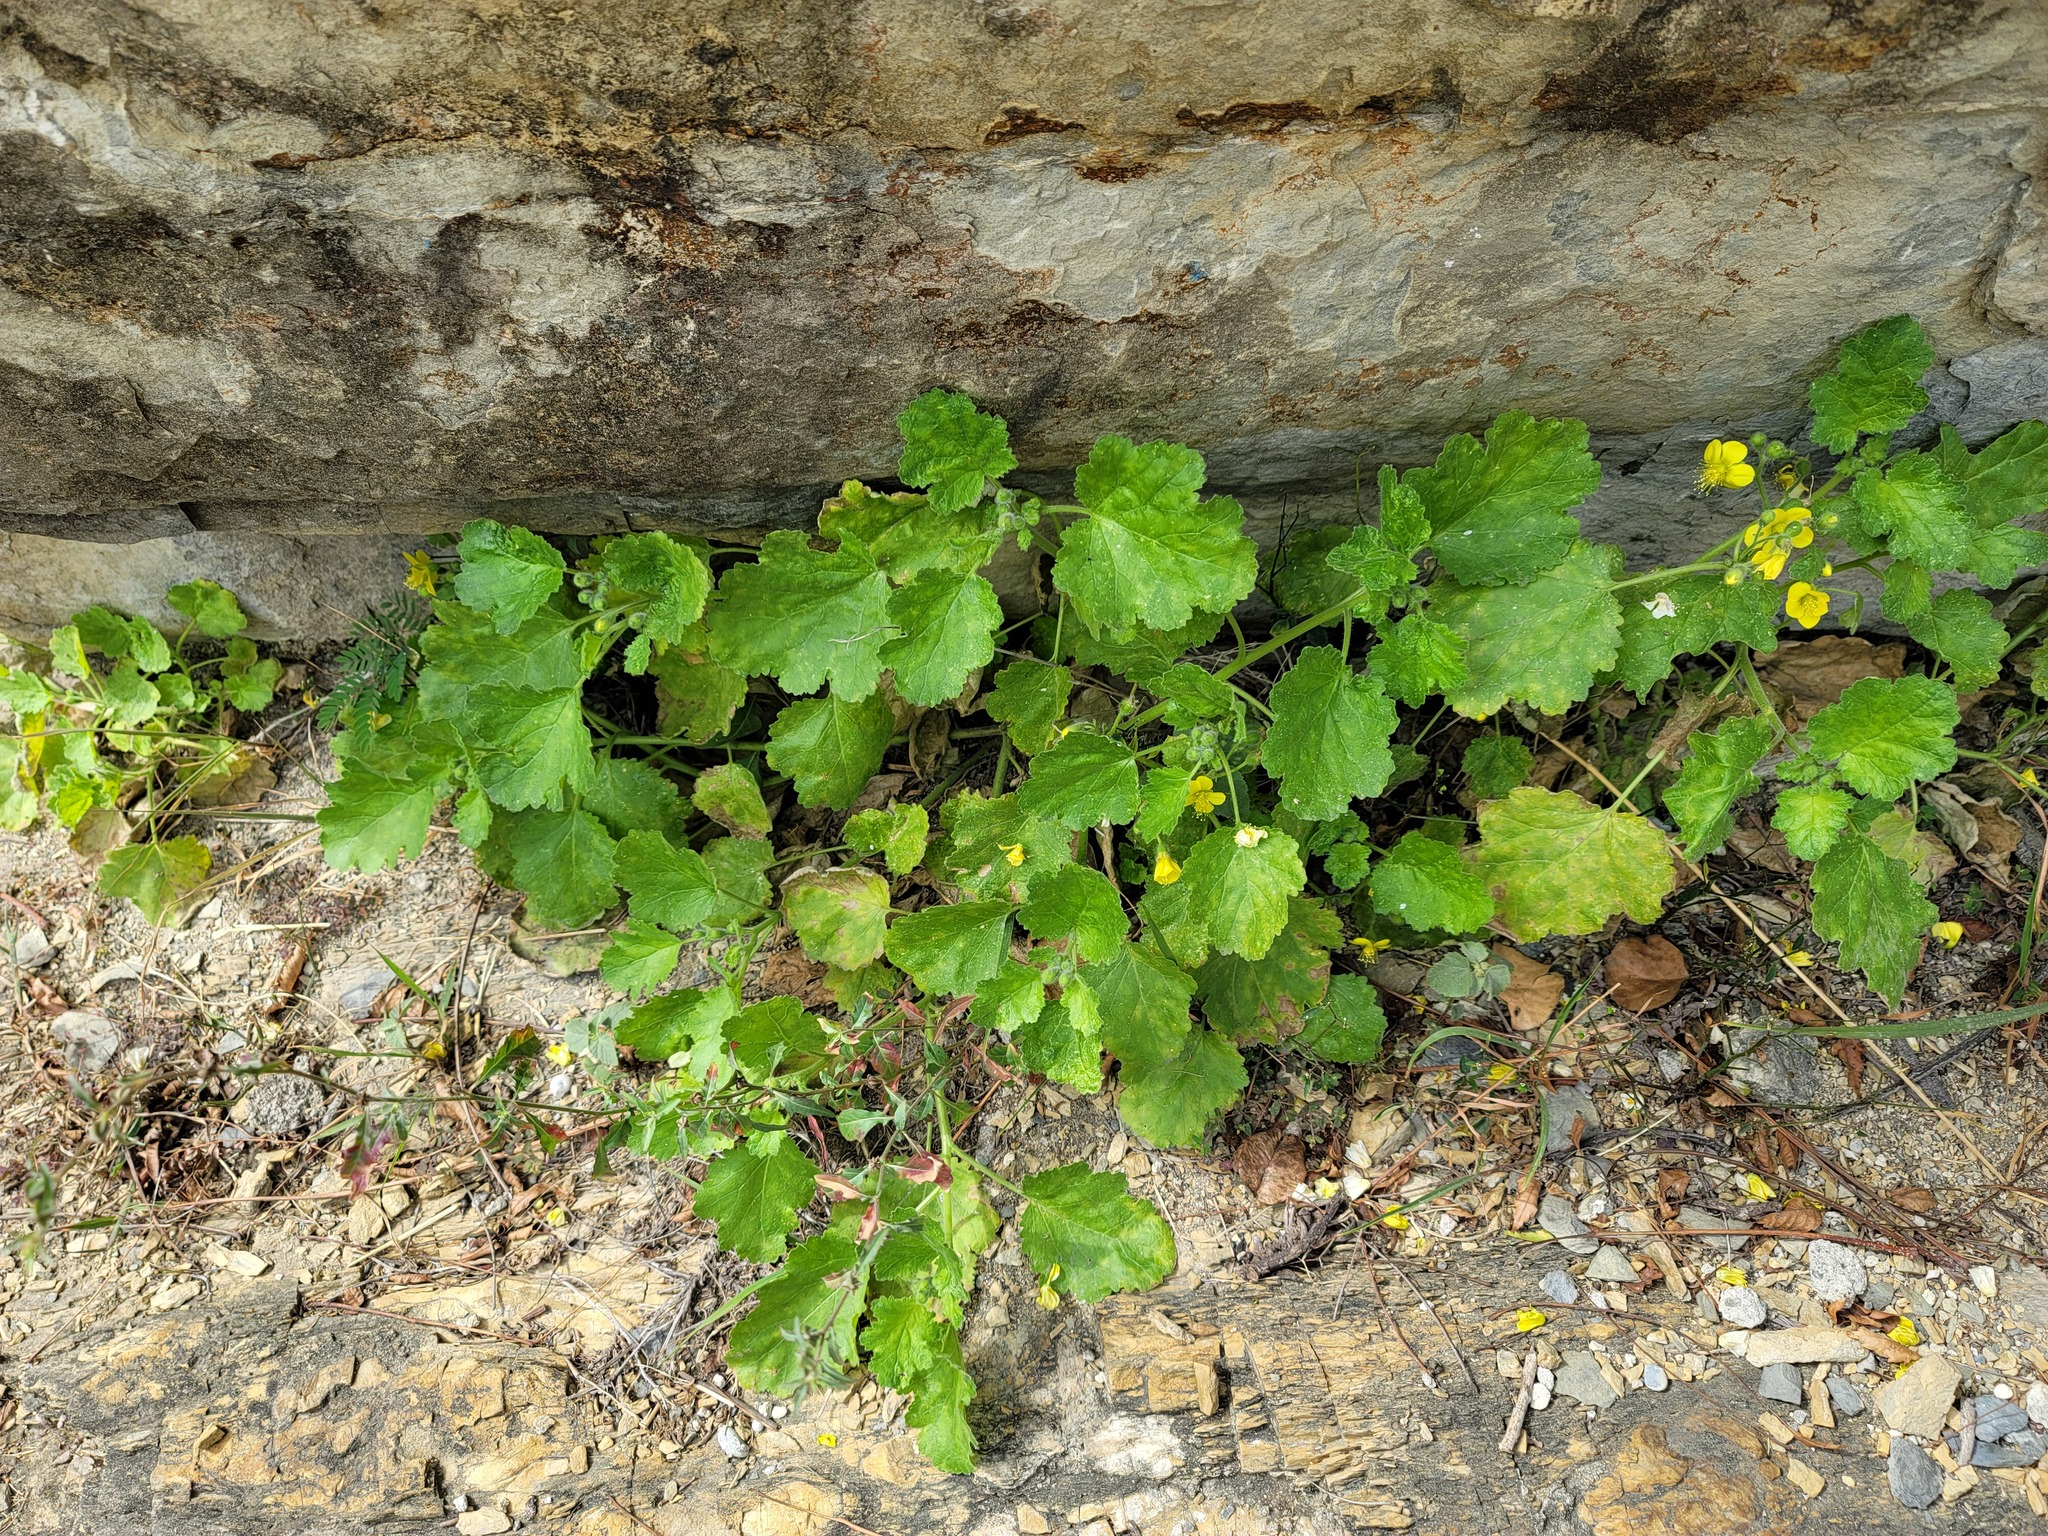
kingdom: Plantae
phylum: Tracheophyta
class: Magnoliopsida
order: Cornales
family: Loasaceae
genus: Eucnide
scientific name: Eucnide lobata
